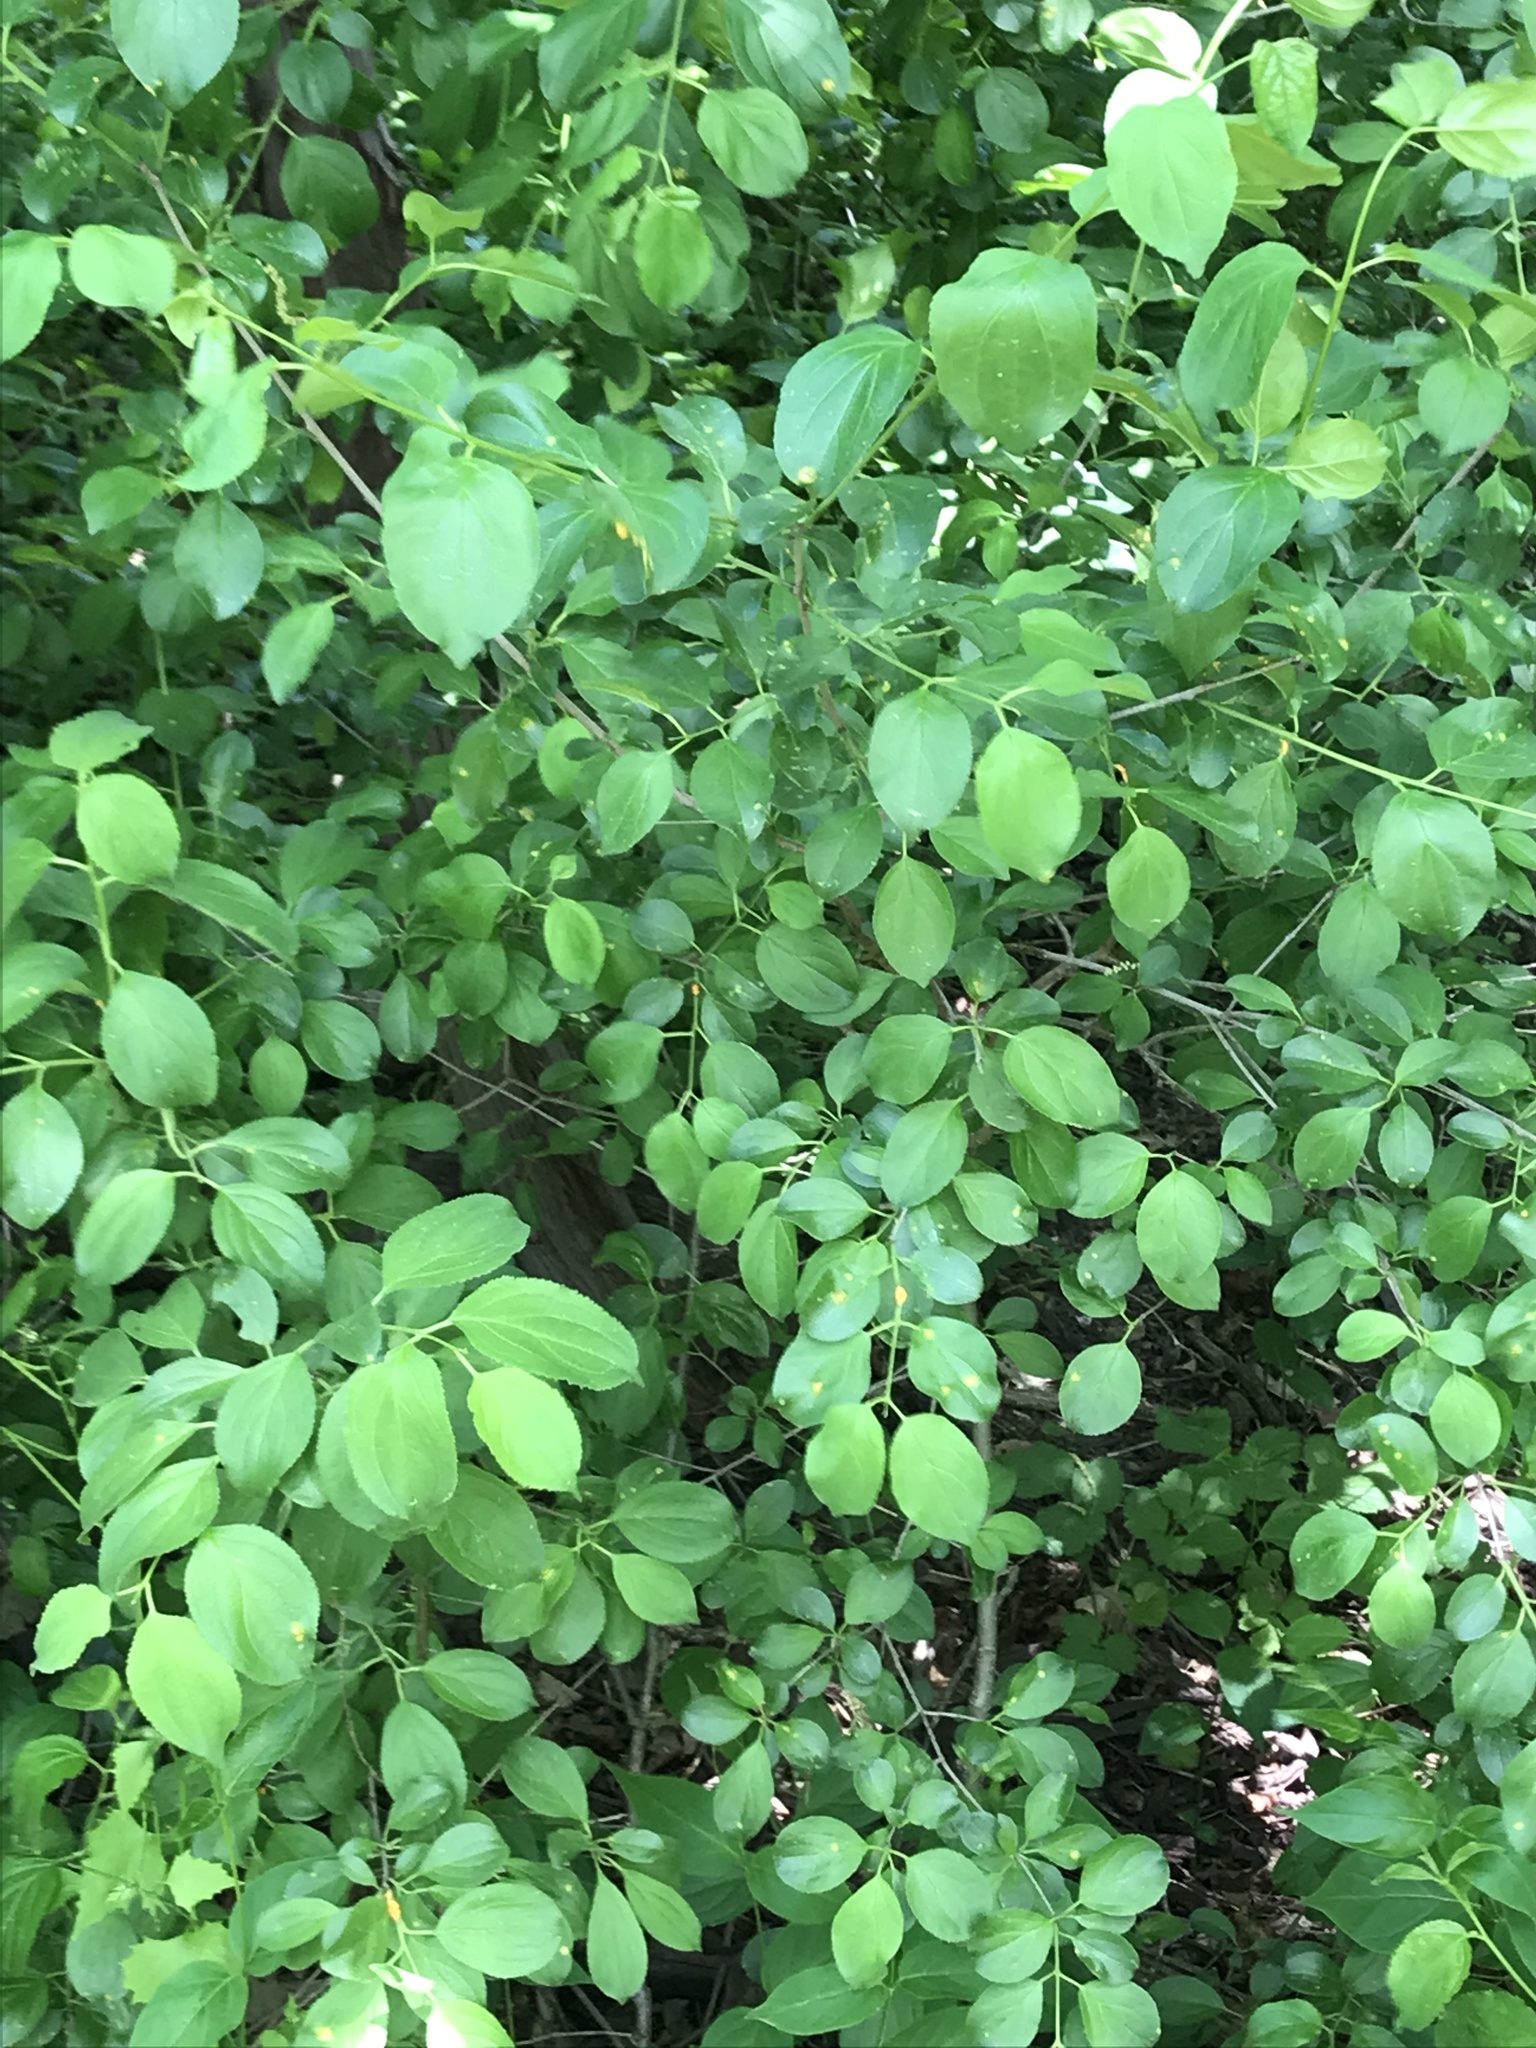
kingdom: Plantae
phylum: Tracheophyta
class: Magnoliopsida
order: Rosales
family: Rhamnaceae
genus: Rhamnus
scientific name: Rhamnus cathartica
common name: Common buckthorn
